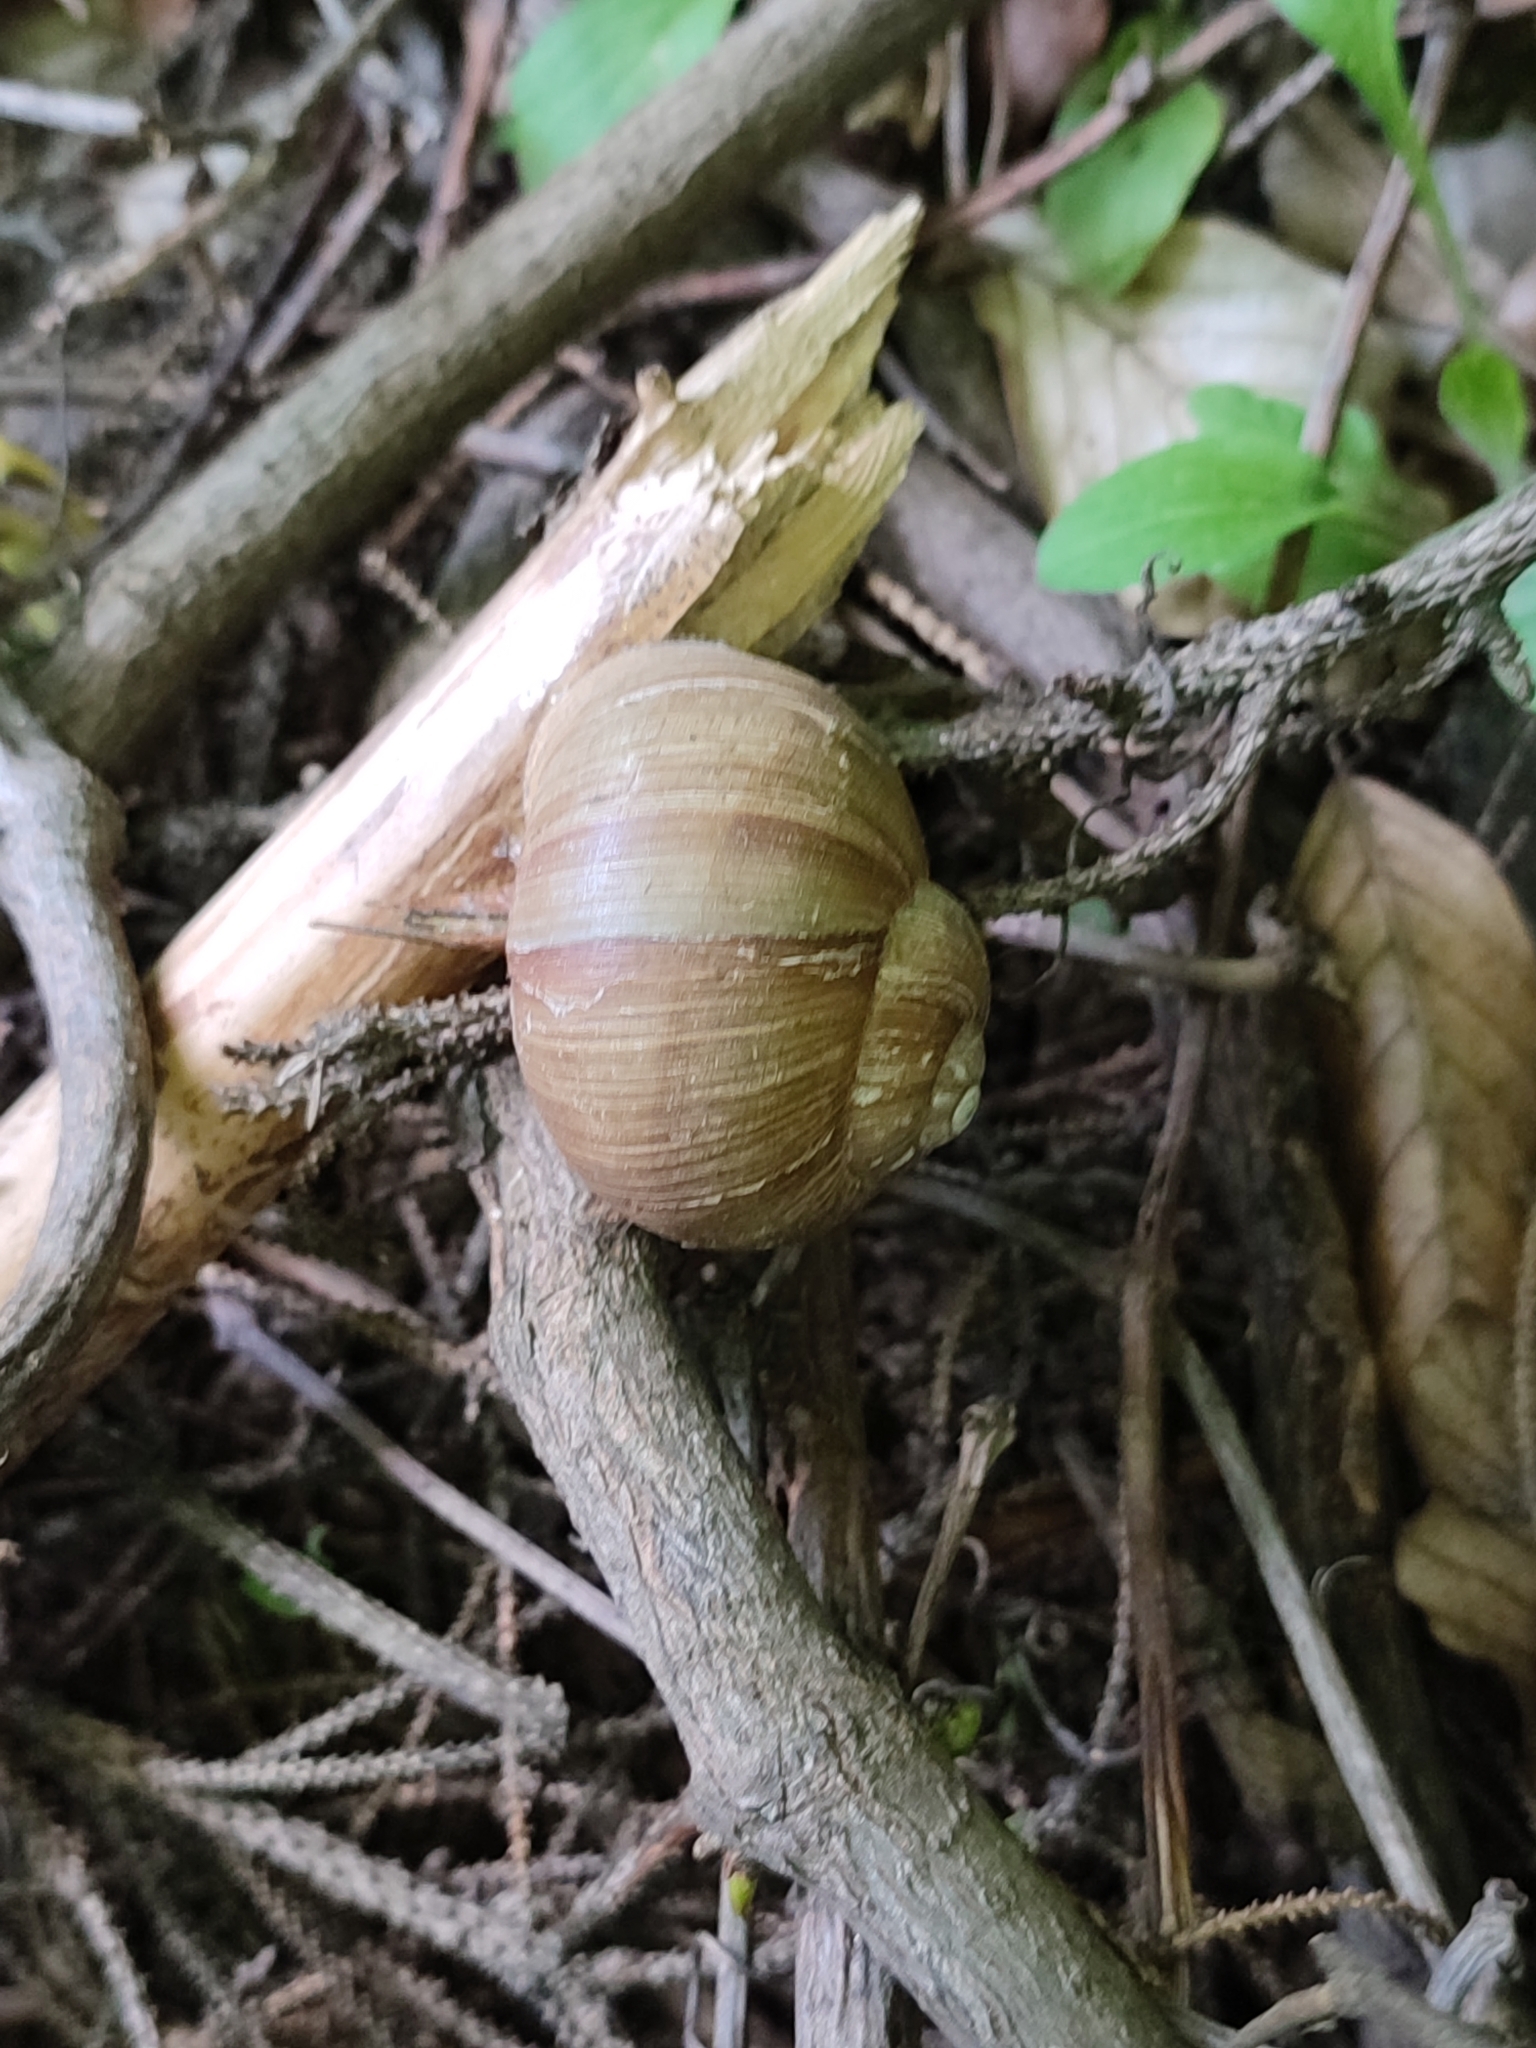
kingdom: Animalia
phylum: Mollusca
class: Gastropoda
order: Stylommatophora
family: Helicidae
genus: Helix
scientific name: Helix pomatia
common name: Roman snail
